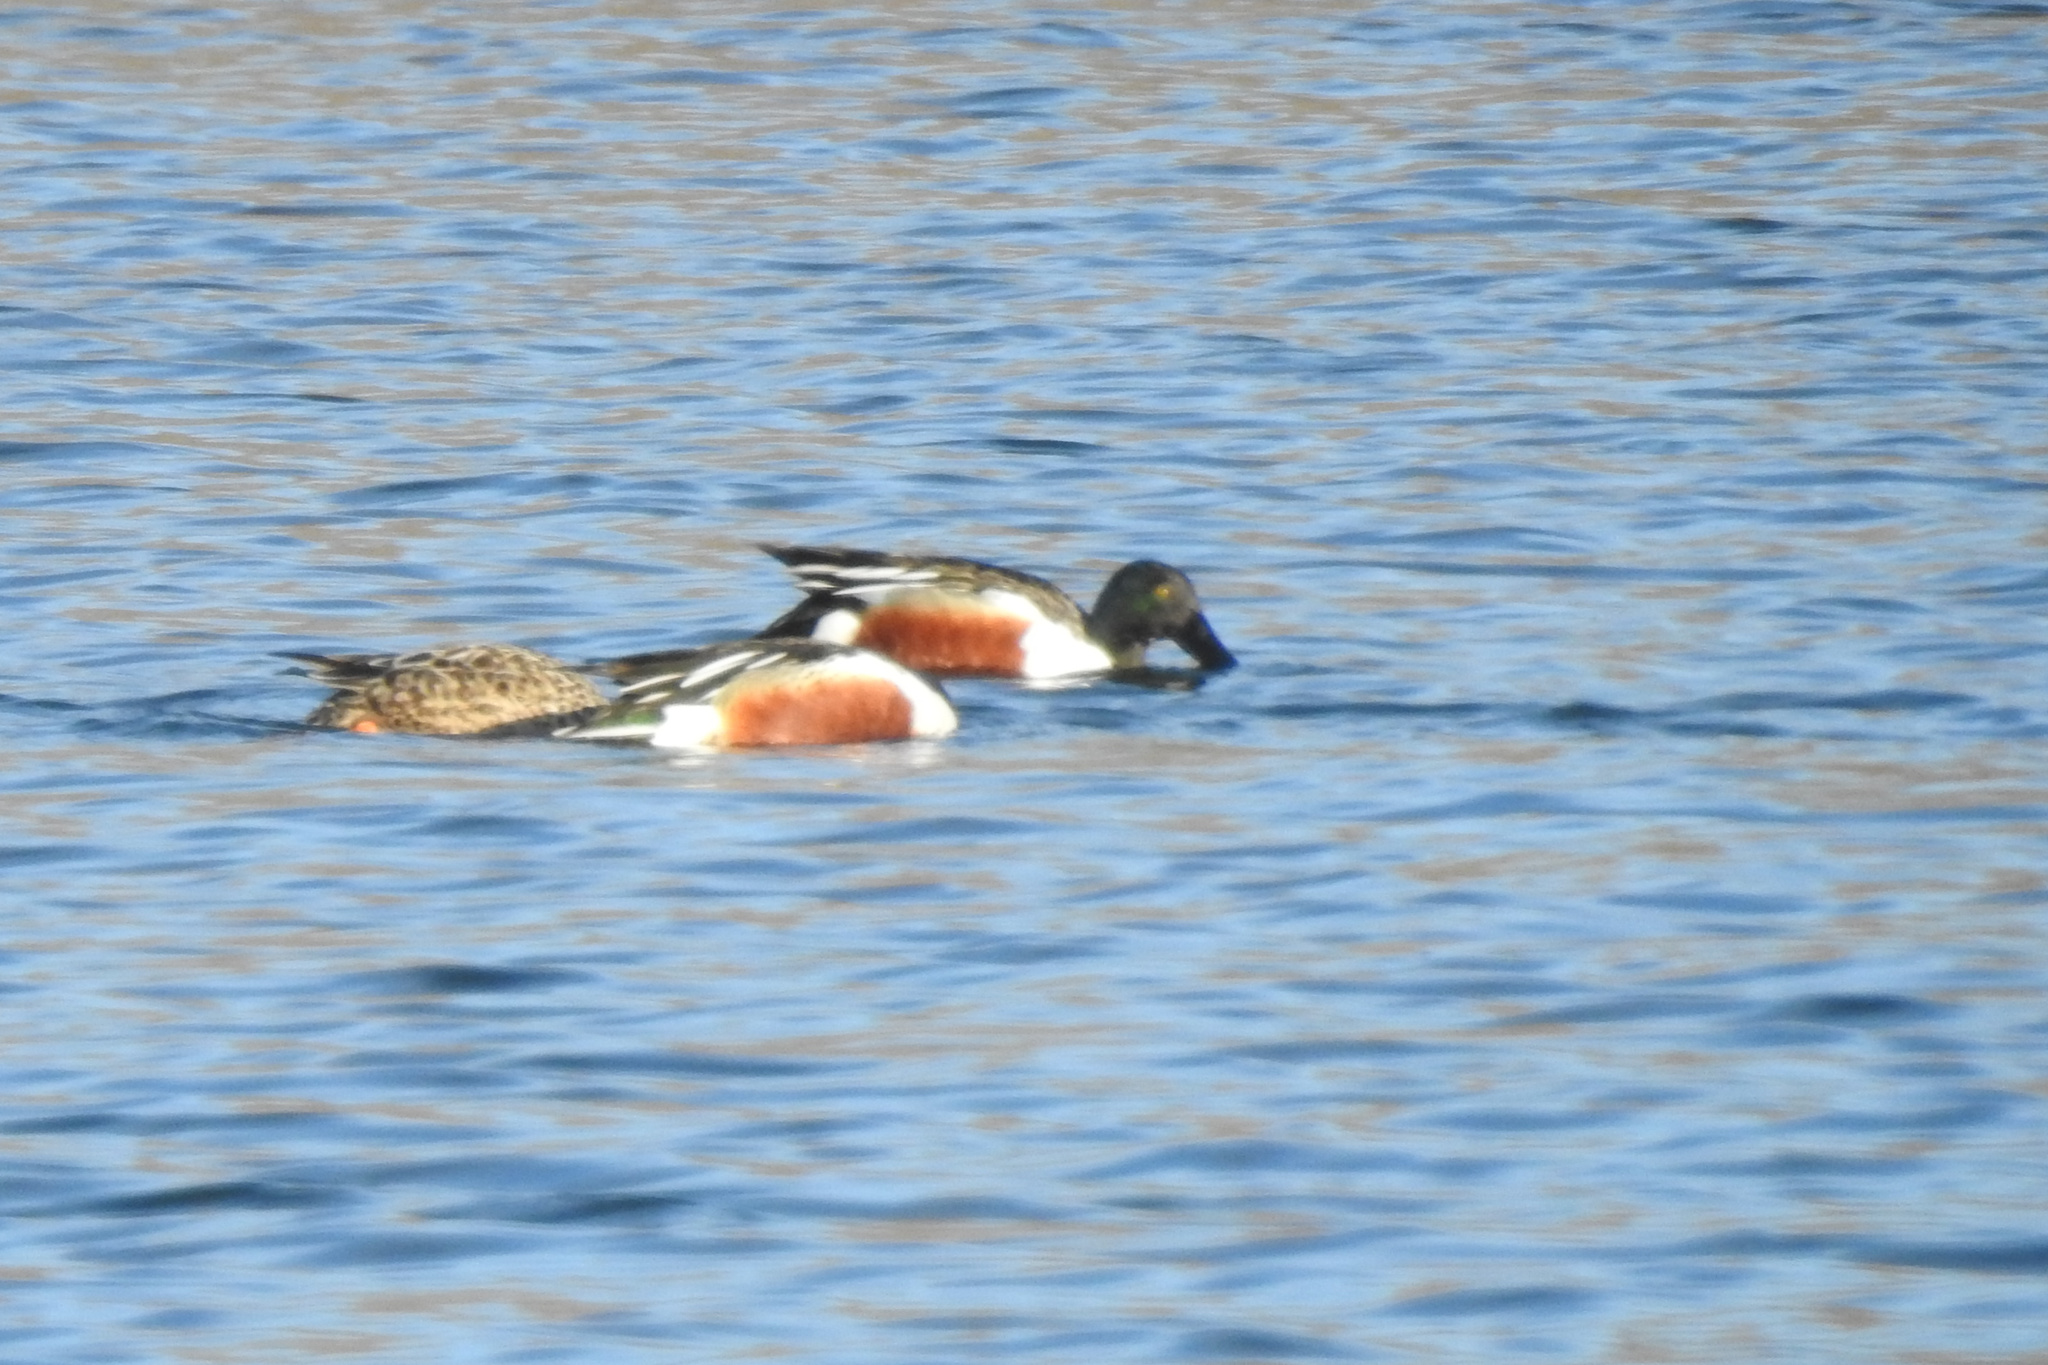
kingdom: Animalia
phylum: Chordata
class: Aves
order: Anseriformes
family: Anatidae
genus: Spatula
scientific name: Spatula clypeata
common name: Northern shoveler
